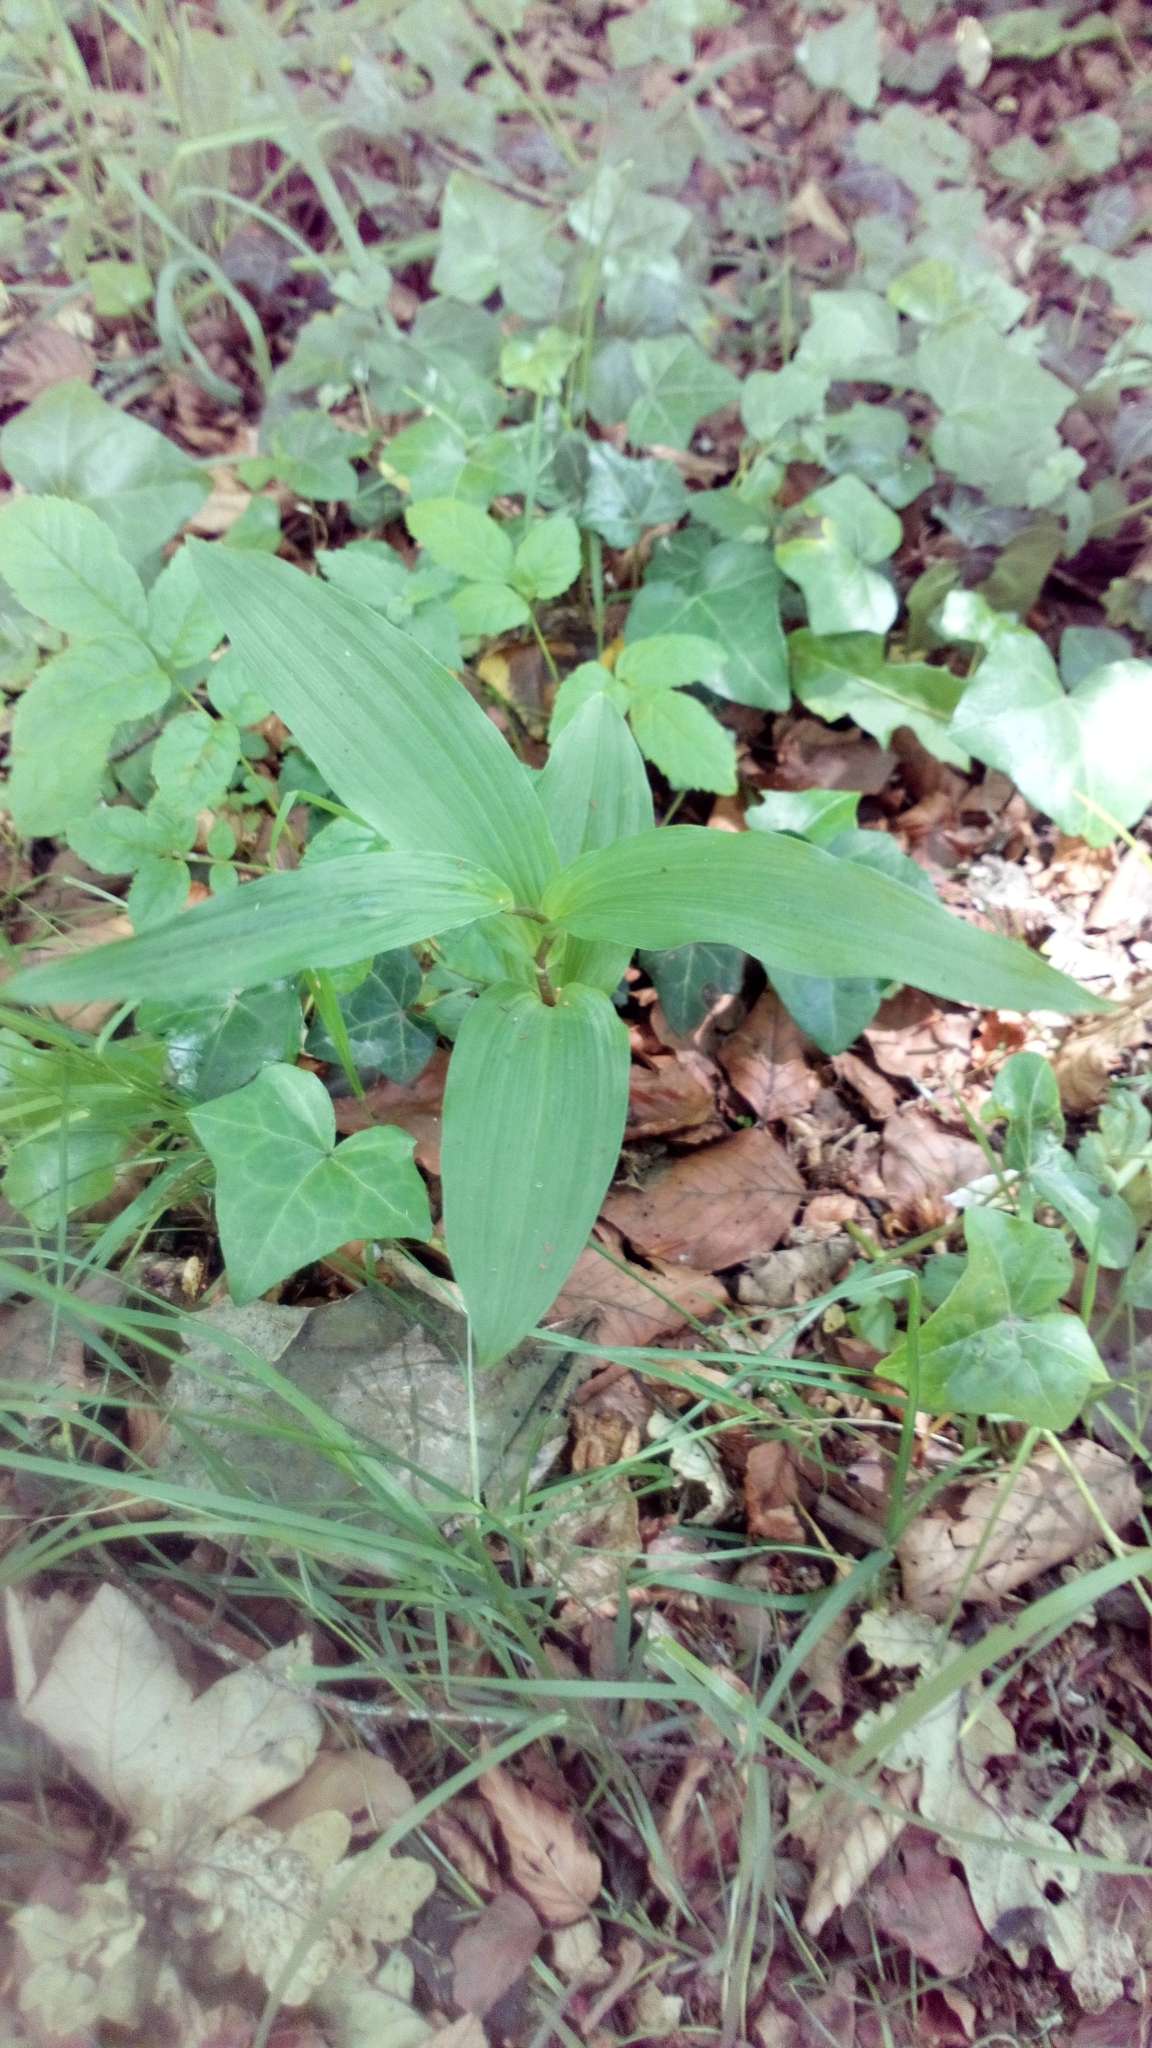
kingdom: Plantae
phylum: Tracheophyta
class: Liliopsida
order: Asparagales
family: Orchidaceae
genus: Epipactis
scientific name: Epipactis helleborine
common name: Broad-leaved helleborine
